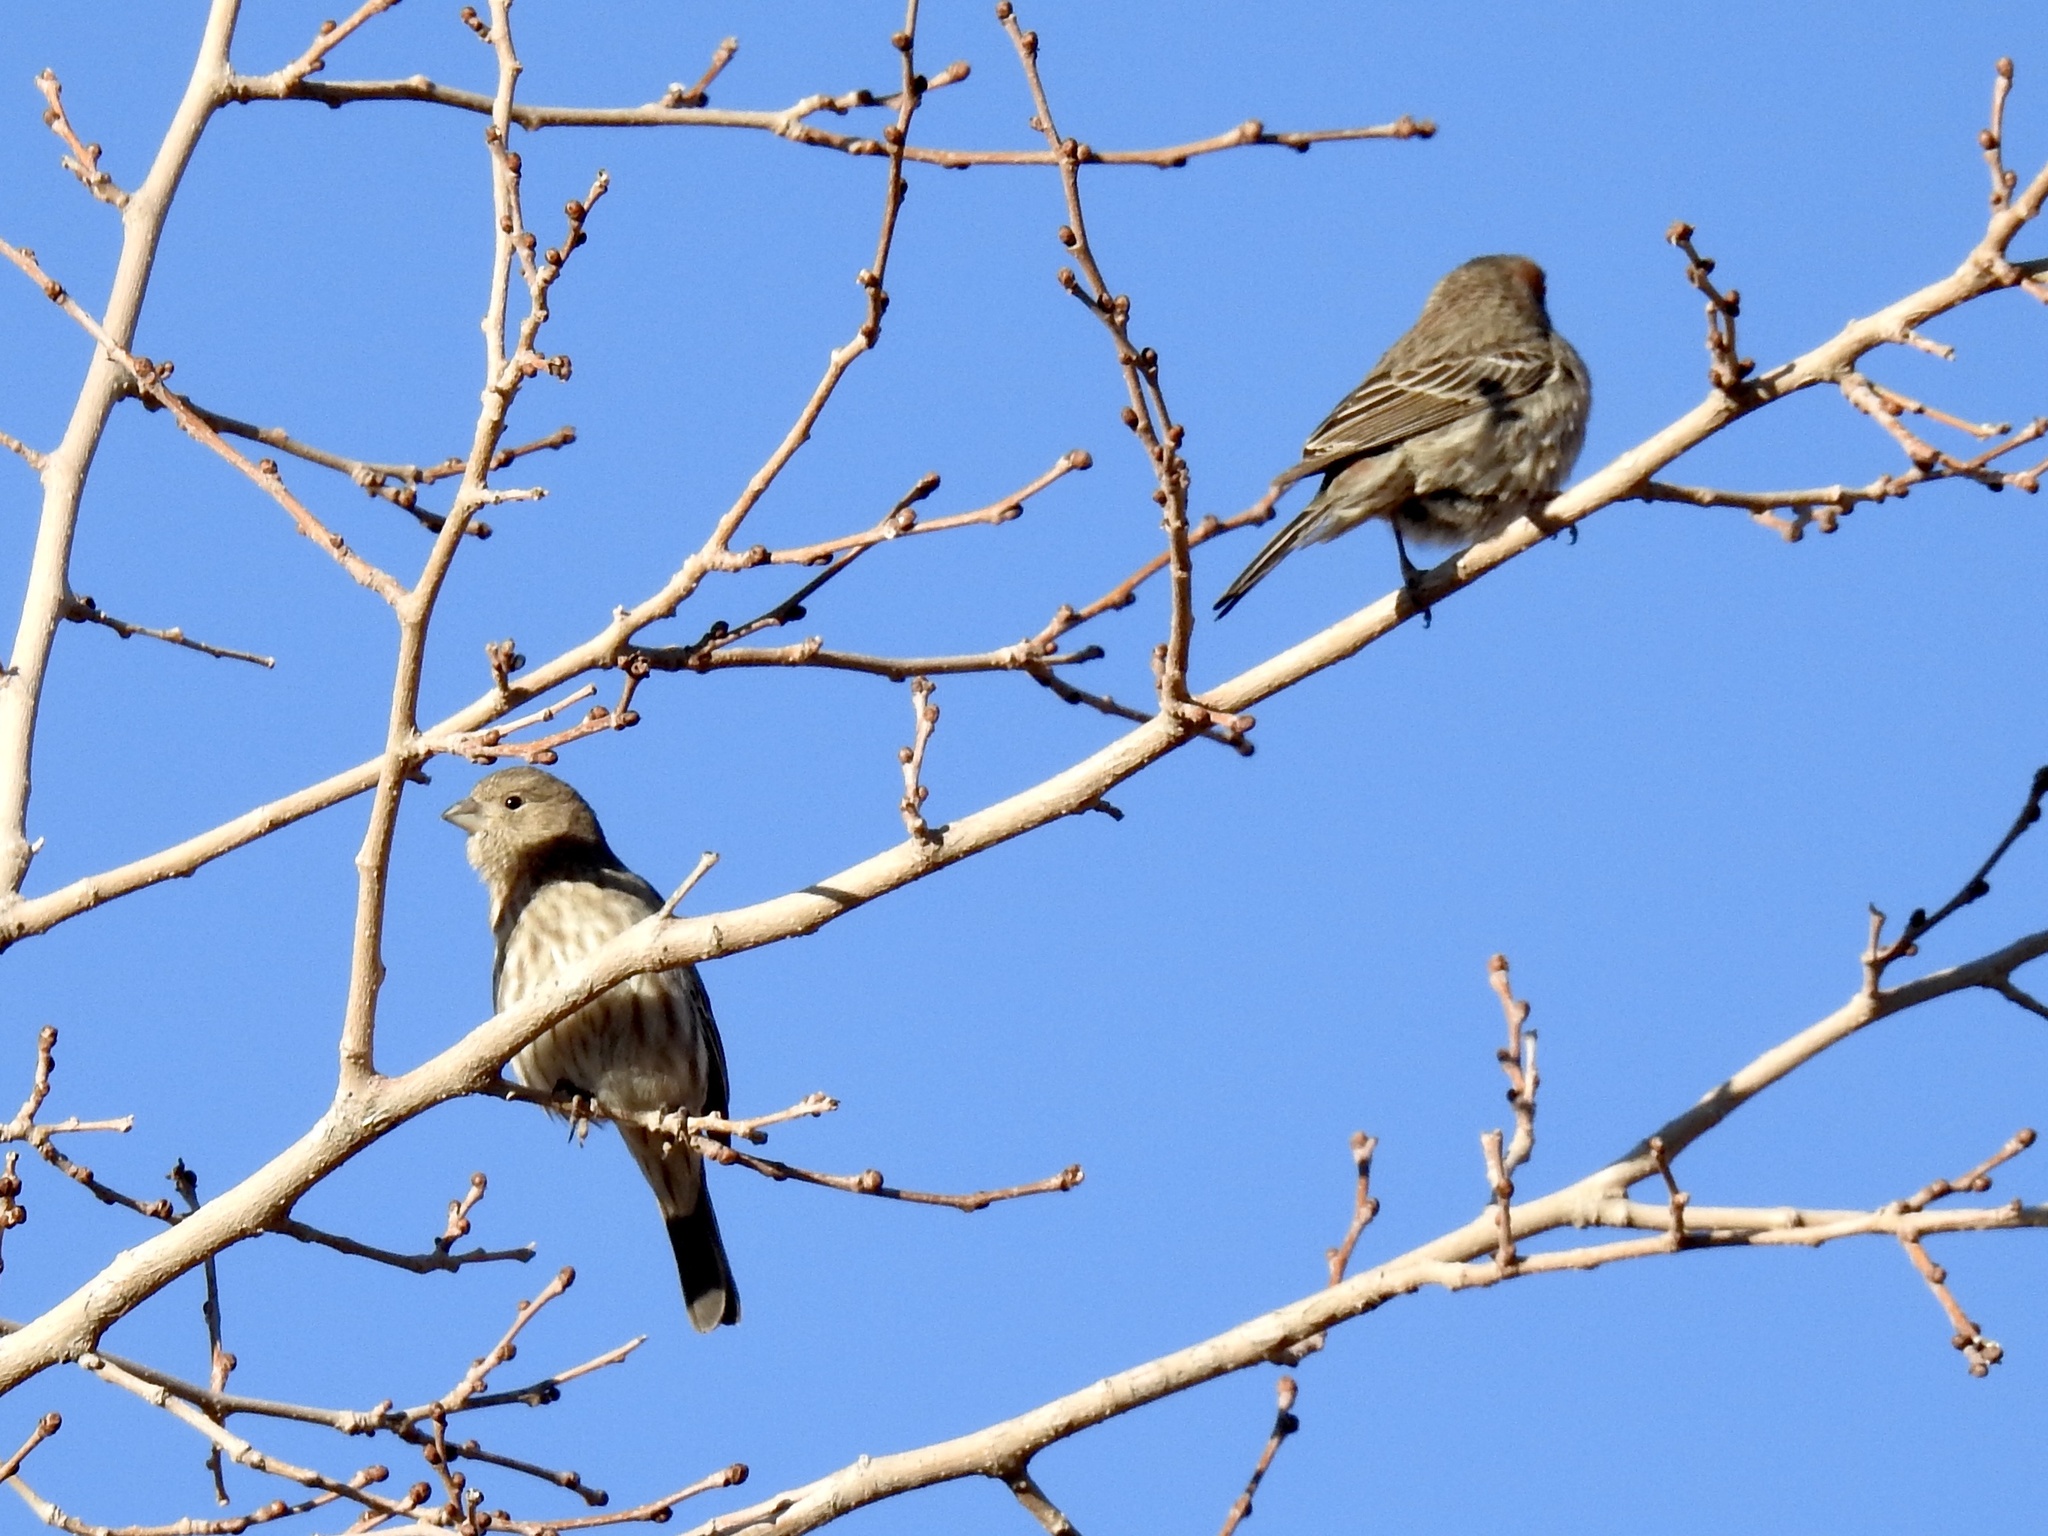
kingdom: Animalia
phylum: Chordata
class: Aves
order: Passeriformes
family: Fringillidae
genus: Haemorhous
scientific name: Haemorhous mexicanus
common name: House finch
